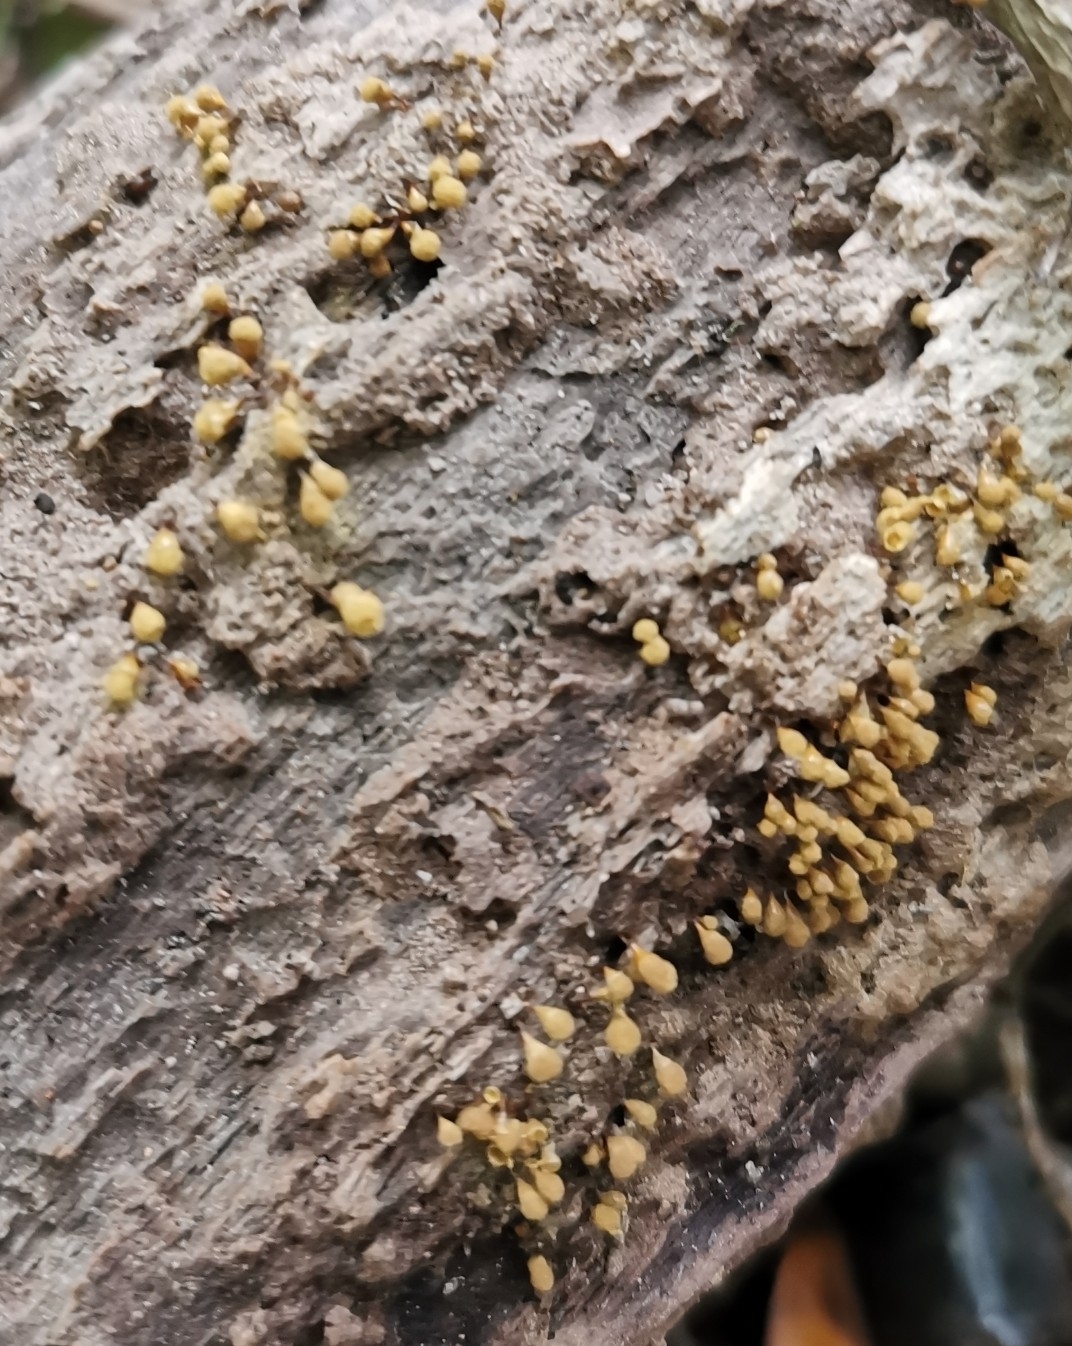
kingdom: Protozoa
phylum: Mycetozoa
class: Myxomycetes
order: Trichiales
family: Arcyriaceae
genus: Hemitrichia
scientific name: Hemitrichia calyculata
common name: Push pin slime mold
